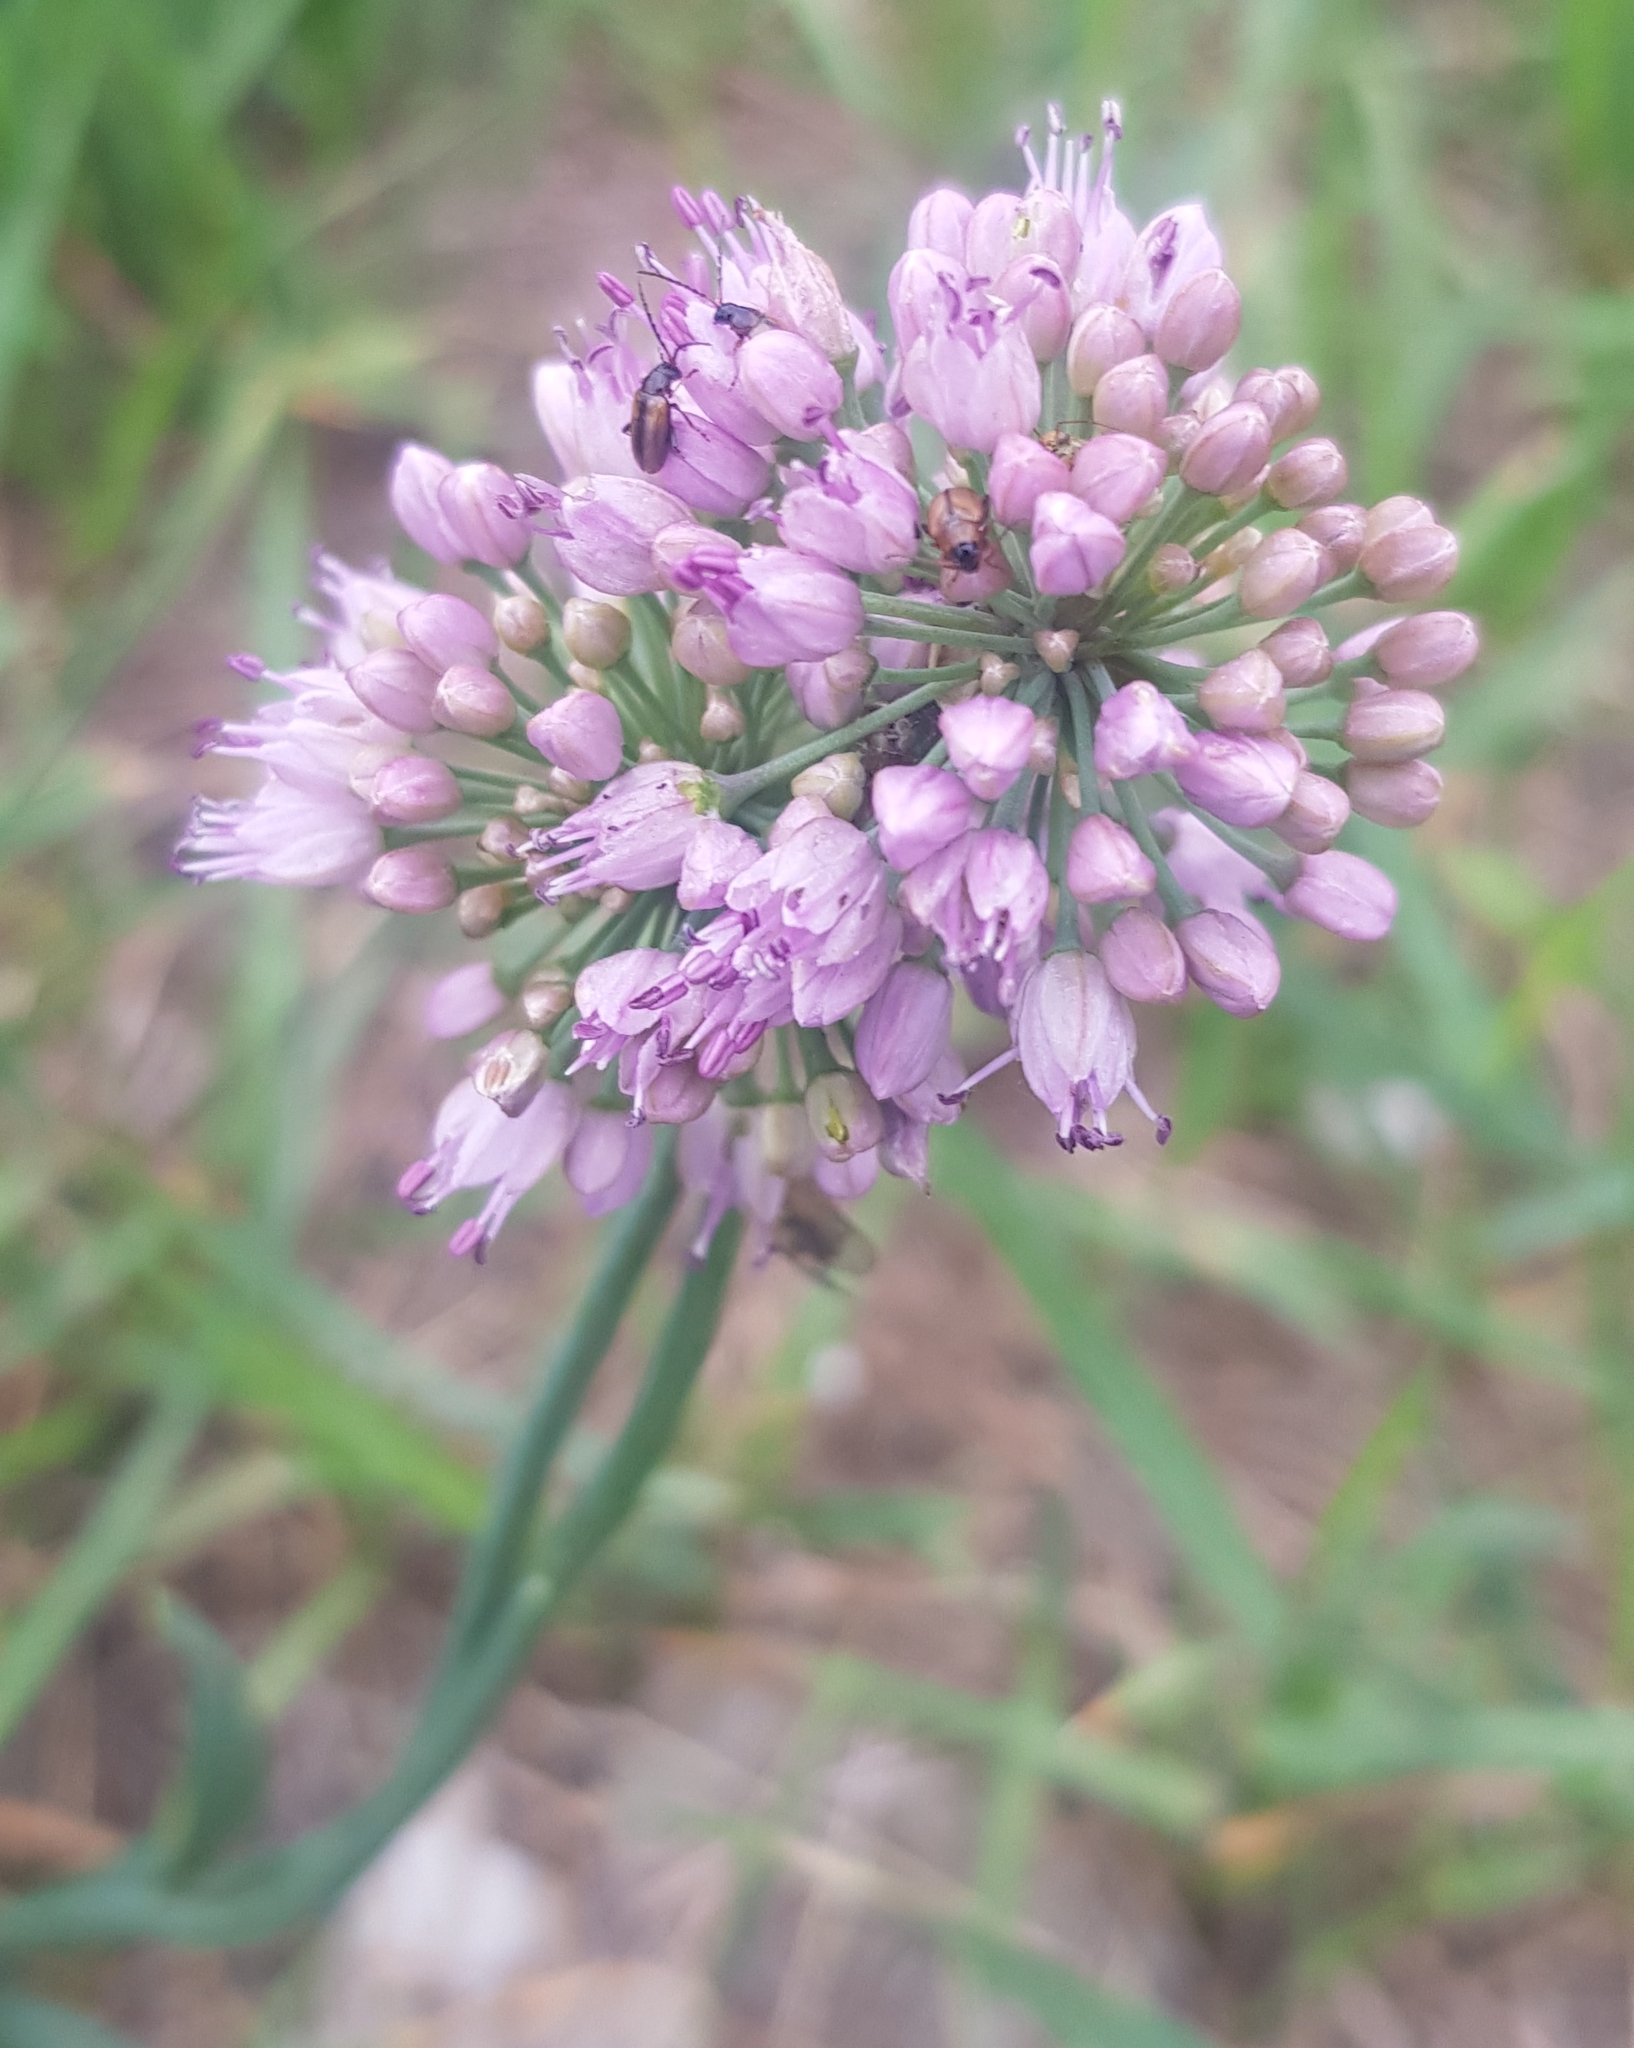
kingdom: Plantae
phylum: Tracheophyta
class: Liliopsida
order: Asparagales
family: Amaryllidaceae
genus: Allium
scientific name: Allium senescens
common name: German garlic
